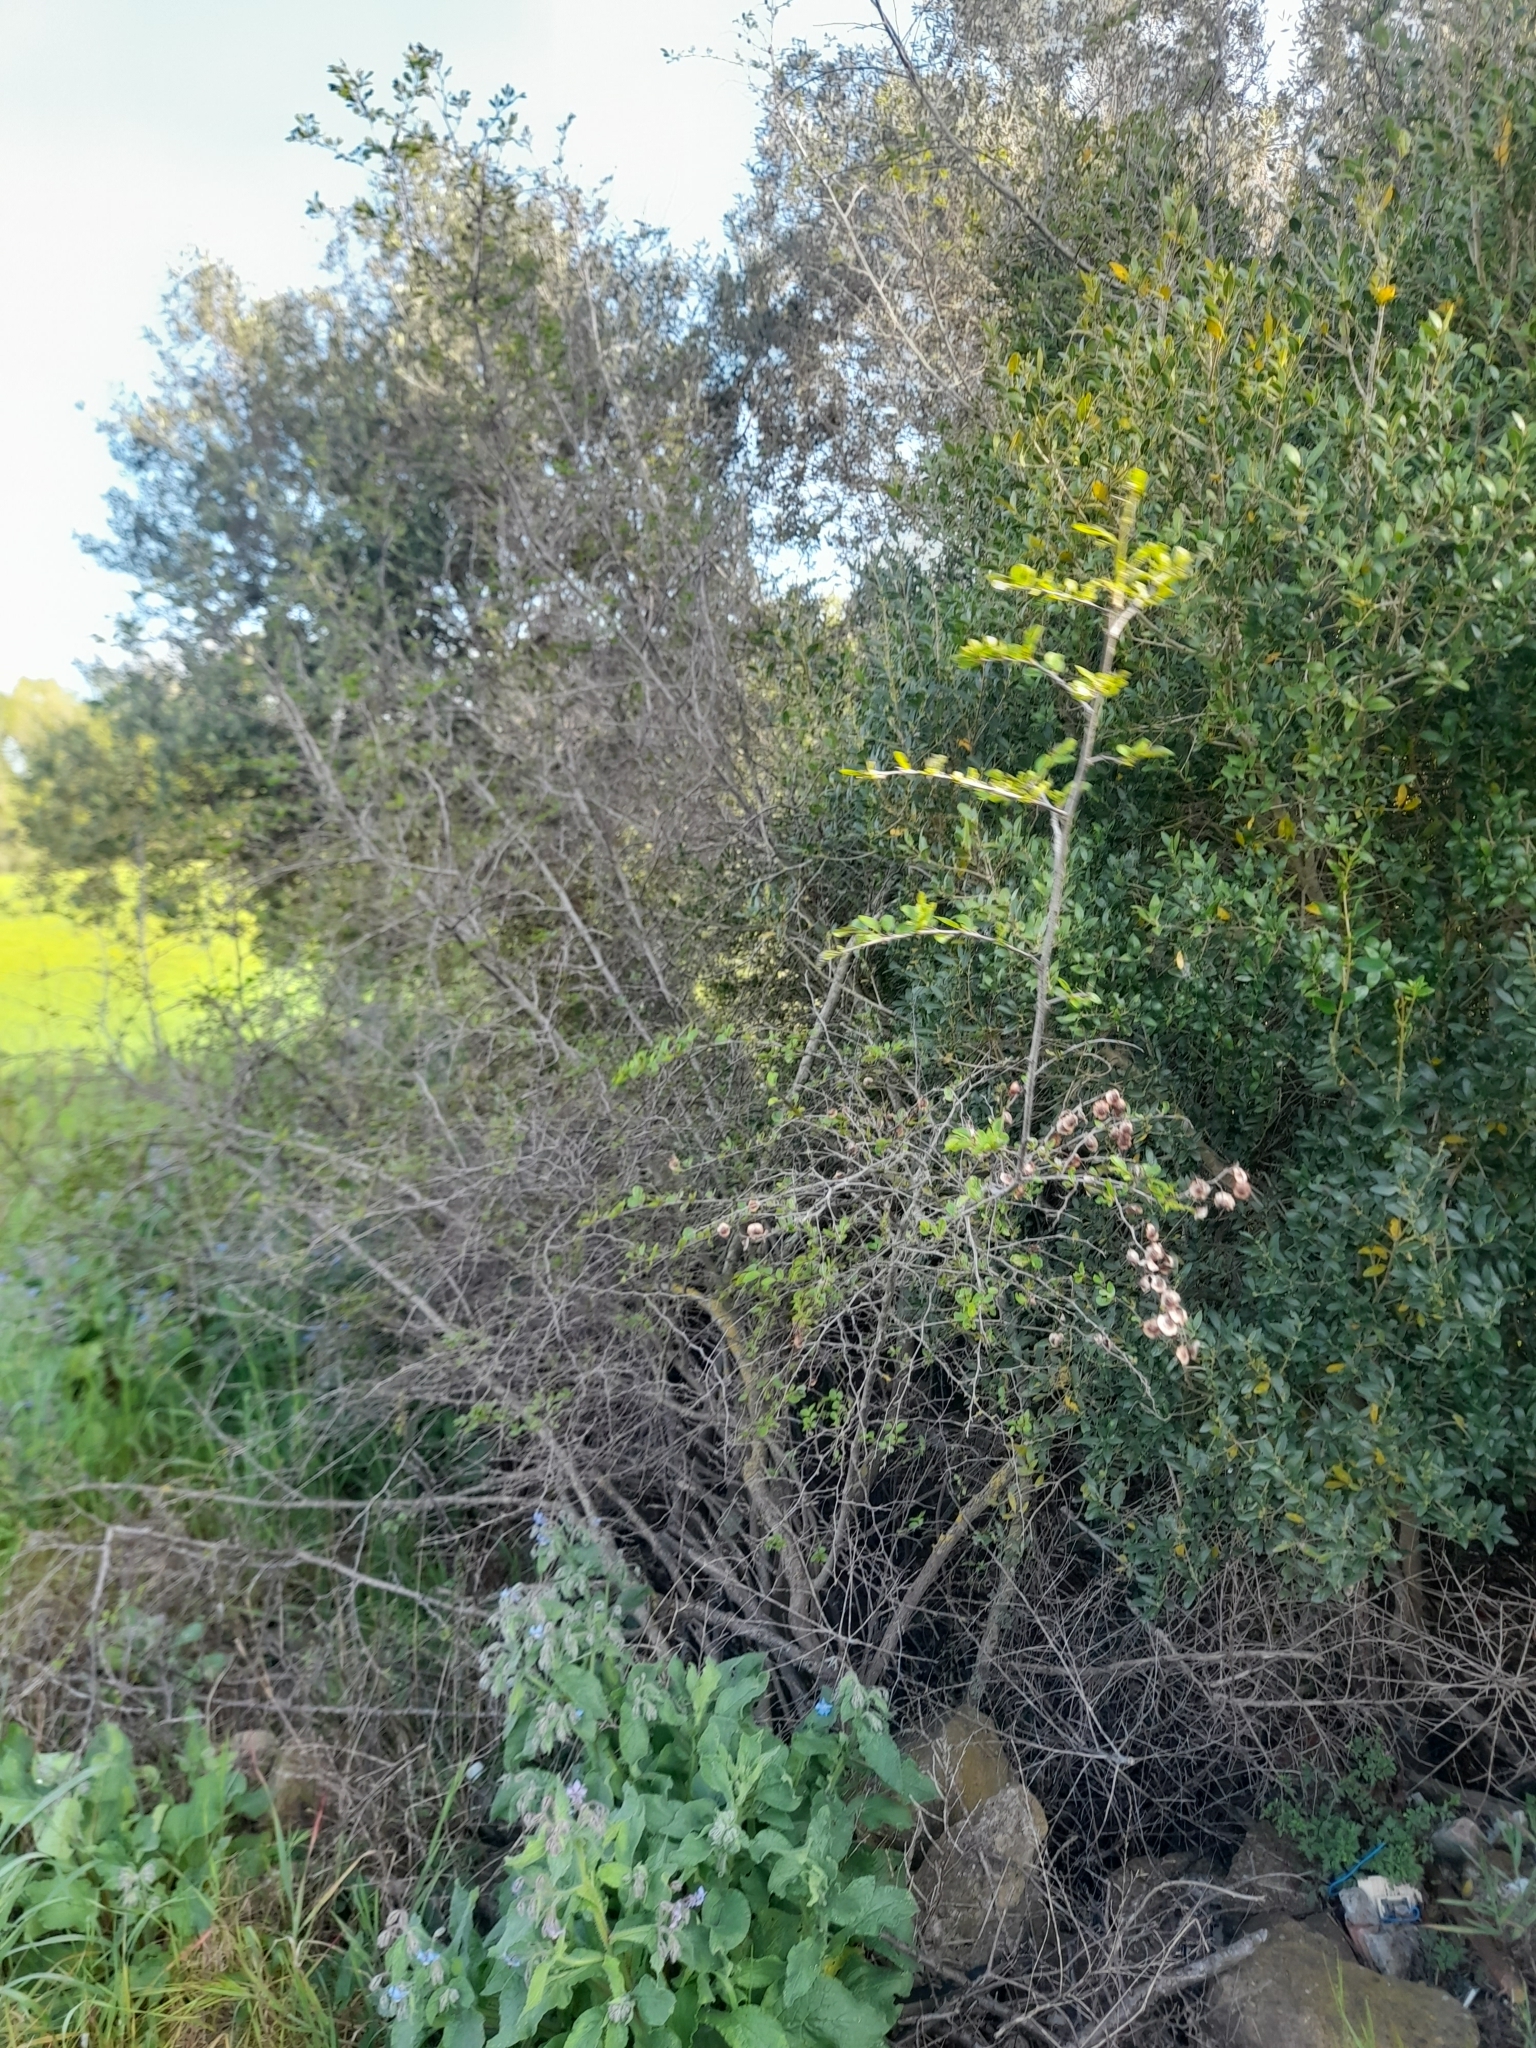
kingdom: Plantae
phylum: Tracheophyta
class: Magnoliopsida
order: Rosales
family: Rhamnaceae
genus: Paliurus
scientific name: Paliurus spina-christi
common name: Jeruselem thorn
